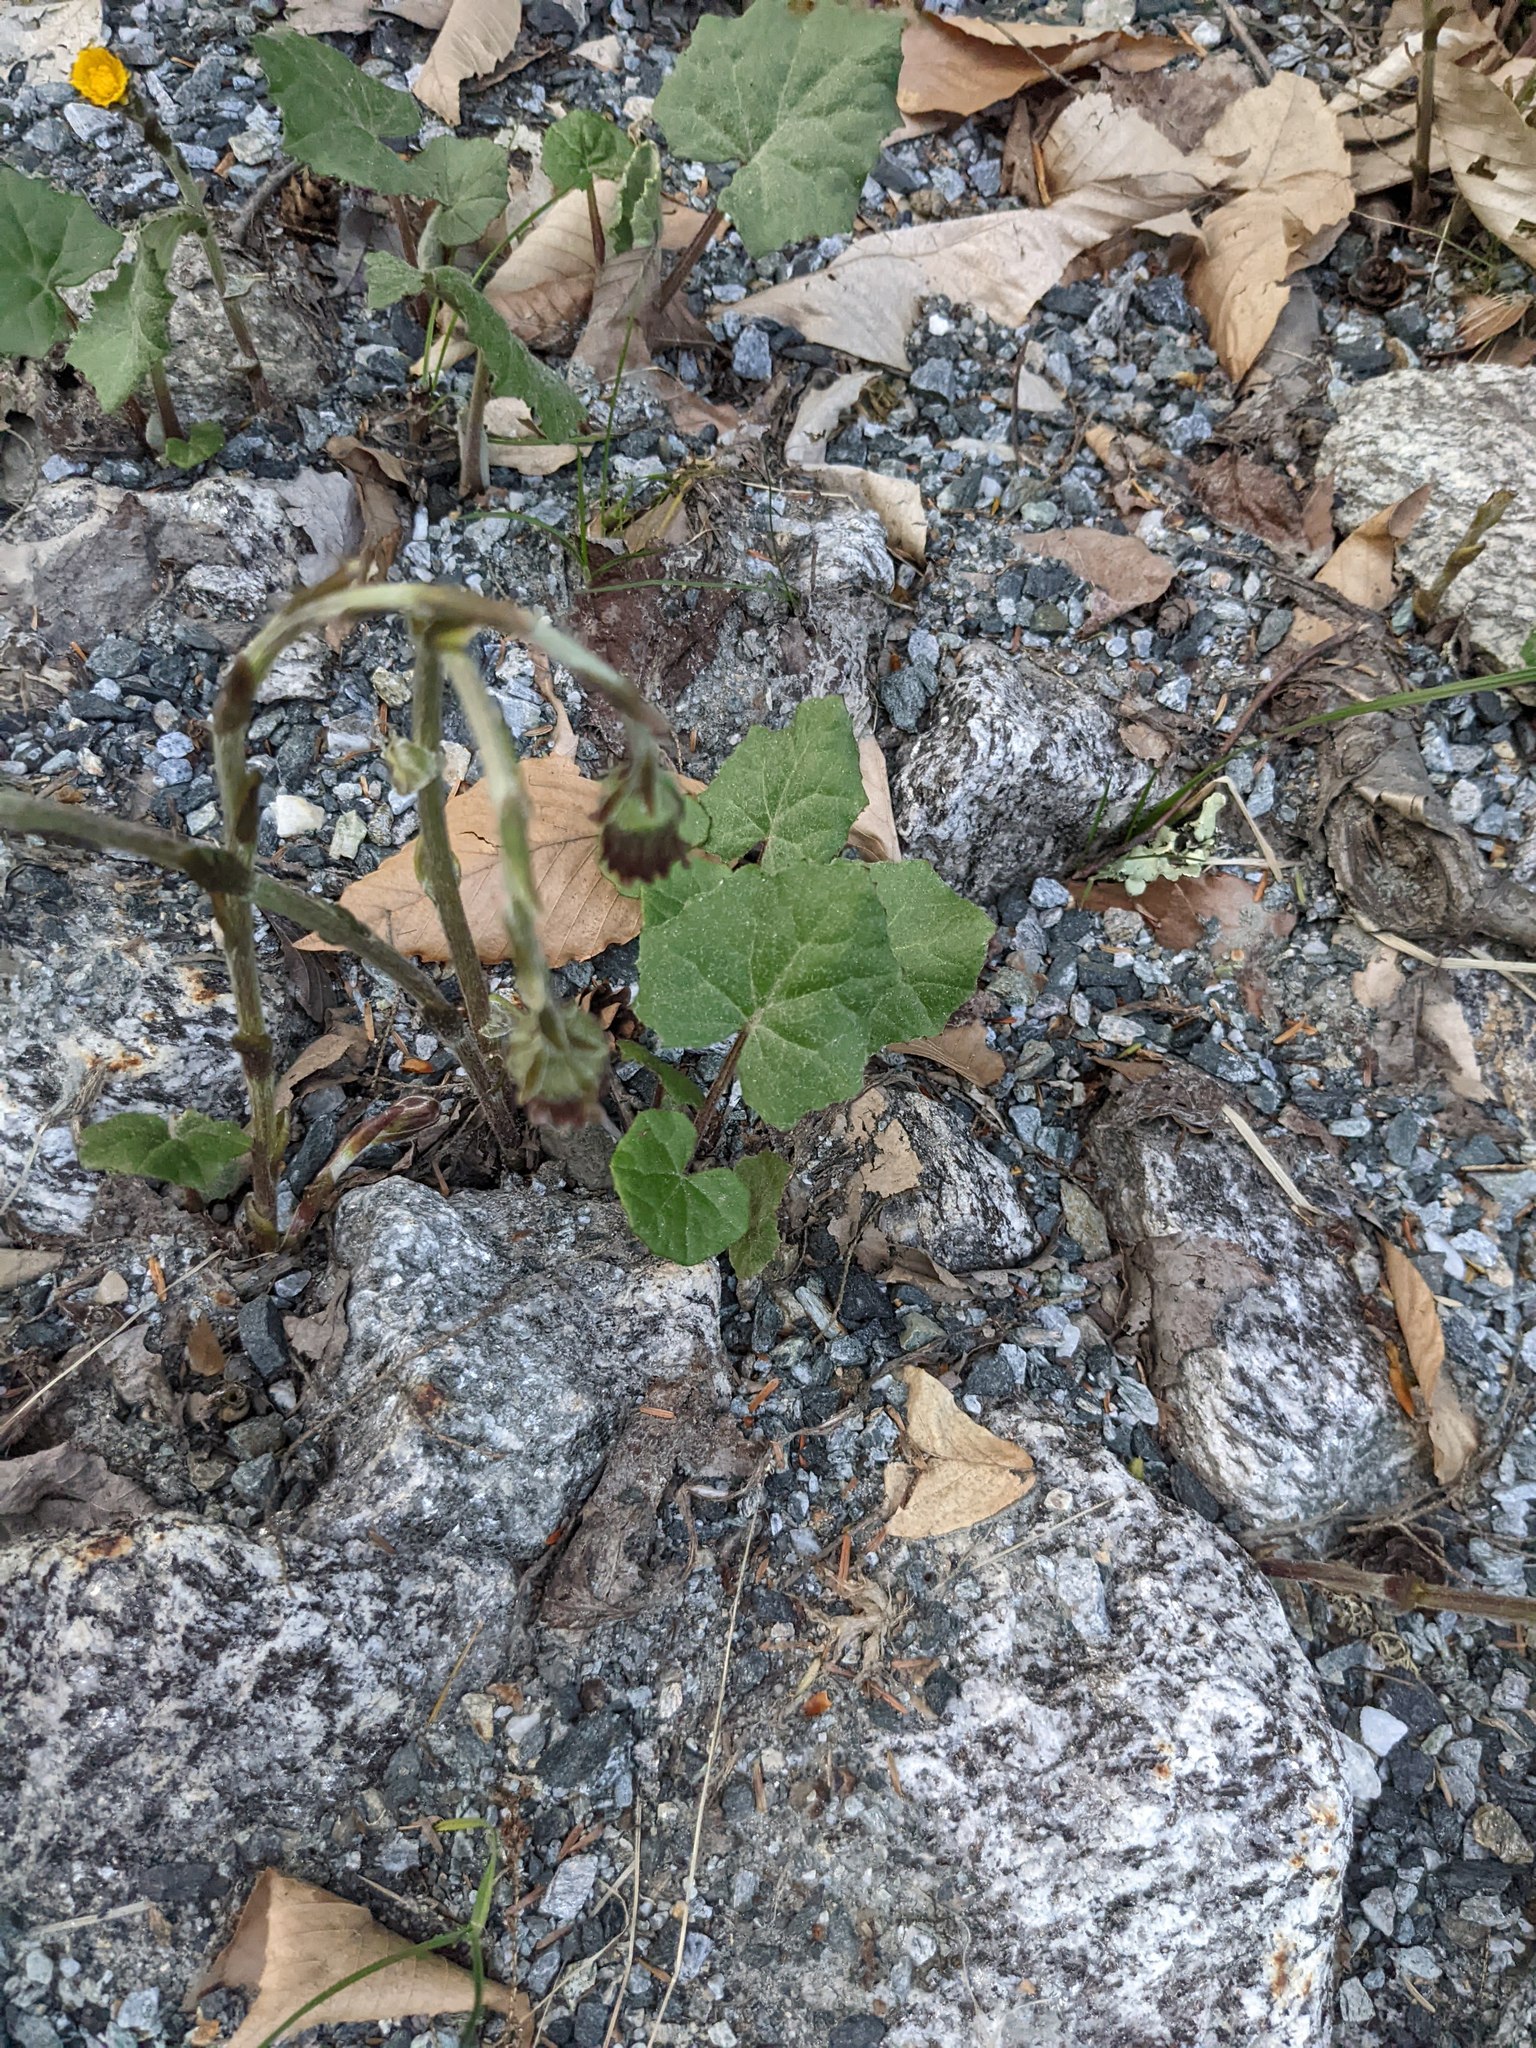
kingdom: Plantae
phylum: Tracheophyta
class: Magnoliopsida
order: Asterales
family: Asteraceae
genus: Tussilago
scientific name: Tussilago farfara
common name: Coltsfoot
